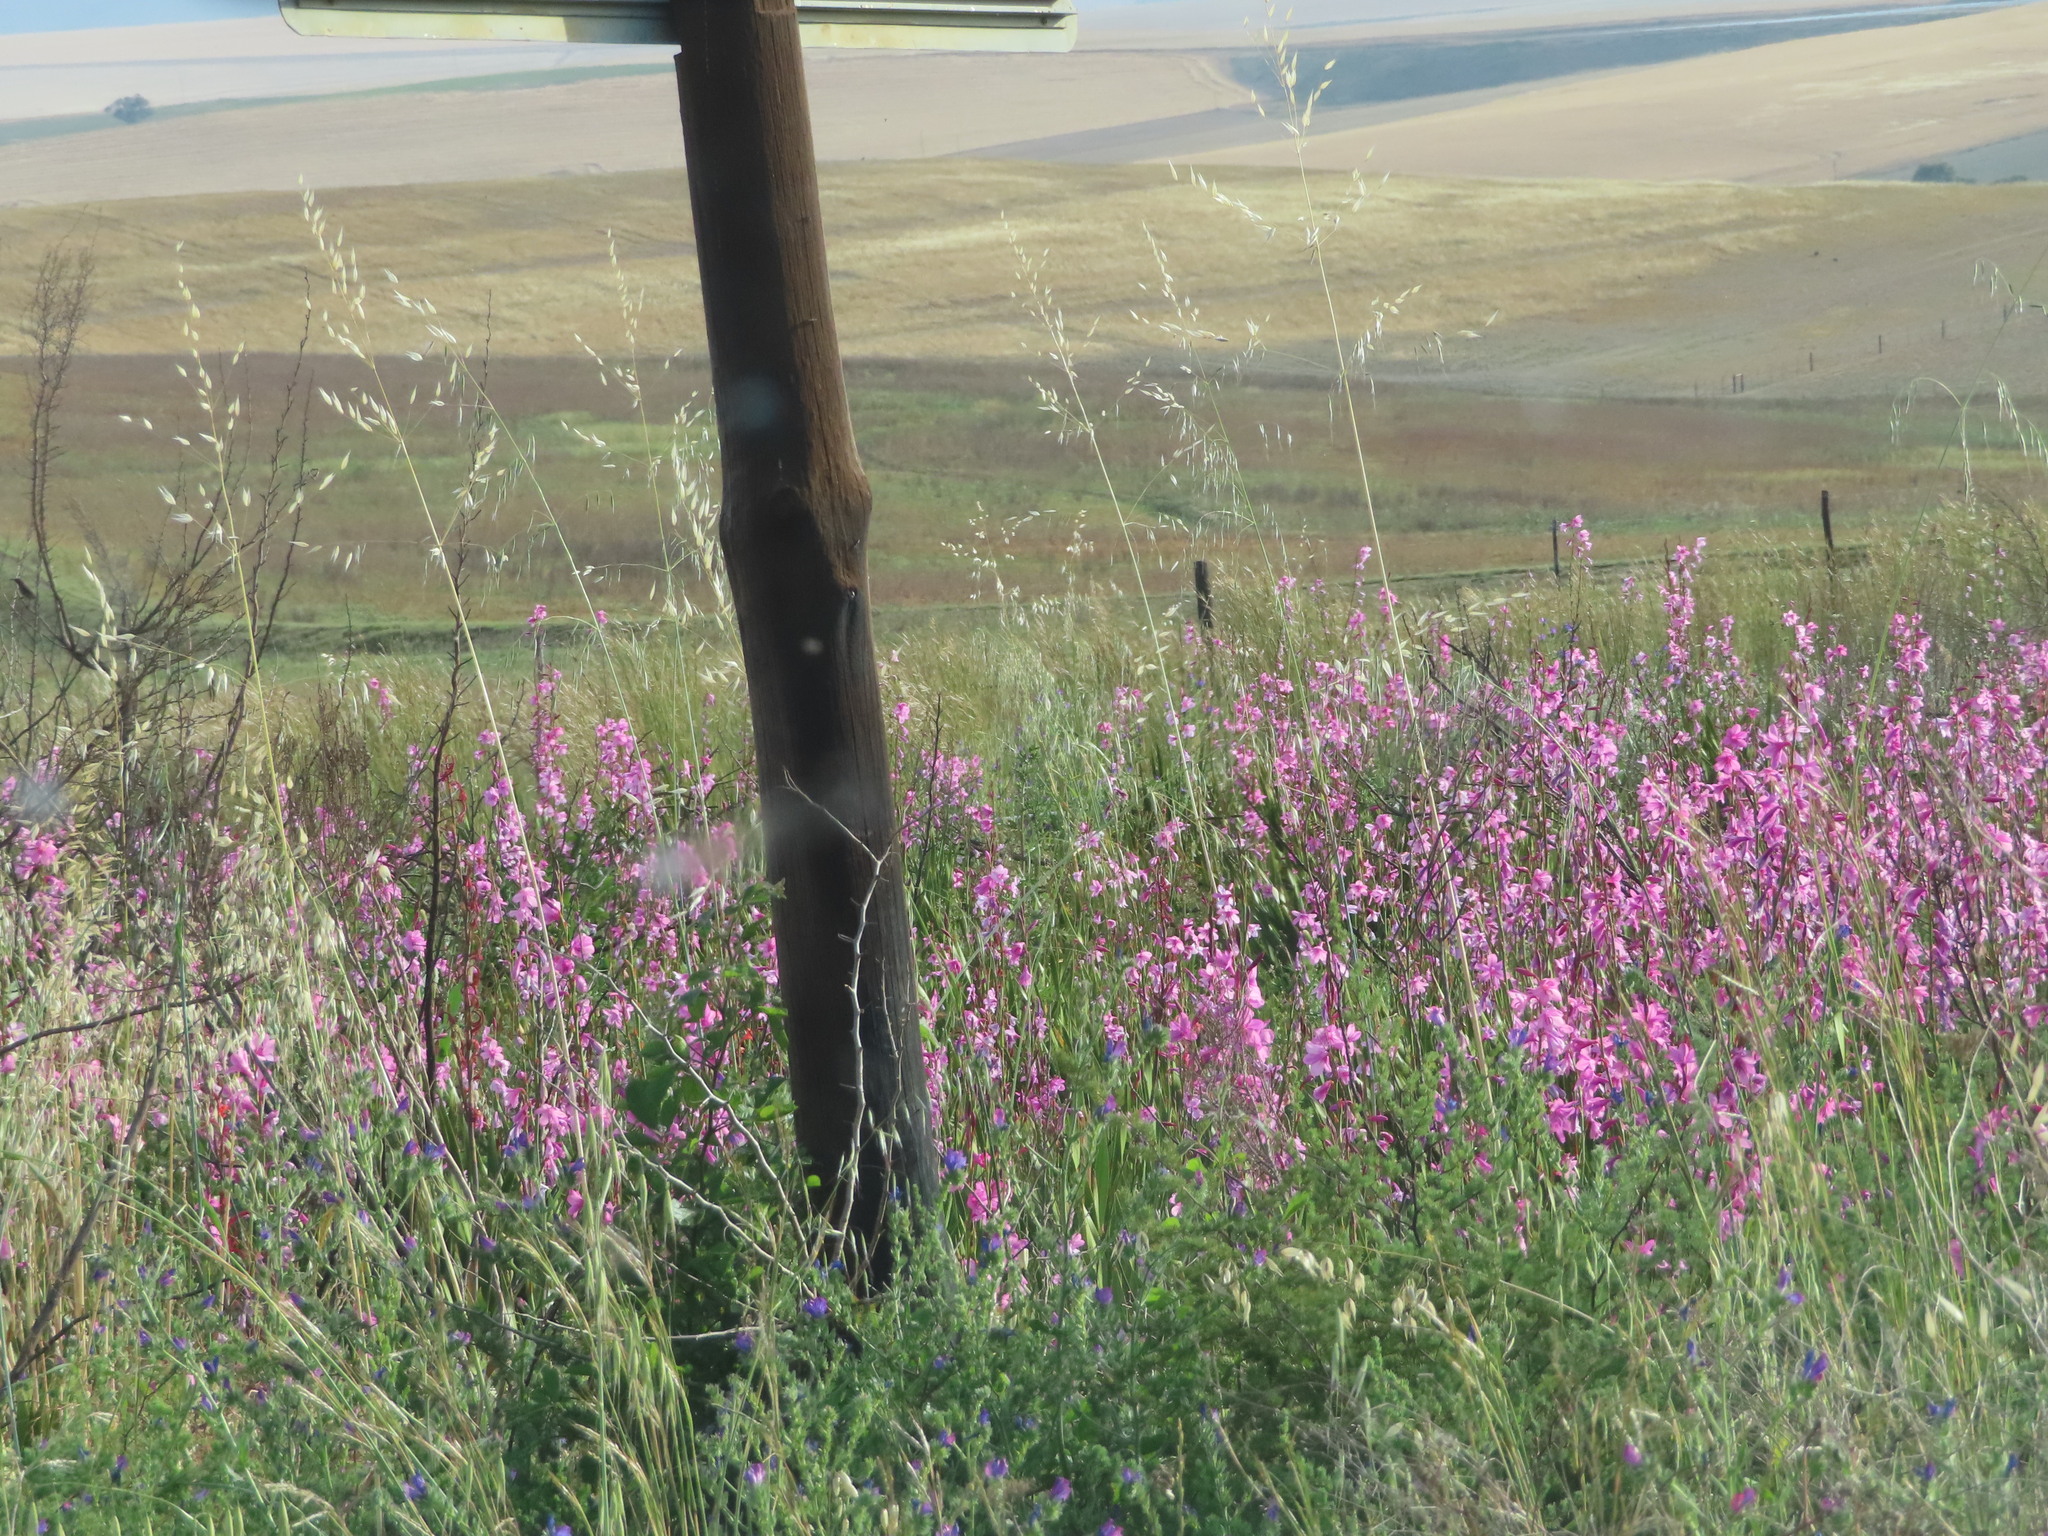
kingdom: Plantae
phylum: Tracheophyta
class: Liliopsida
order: Poales
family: Poaceae
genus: Avena
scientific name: Avena barbata
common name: Slender oat
